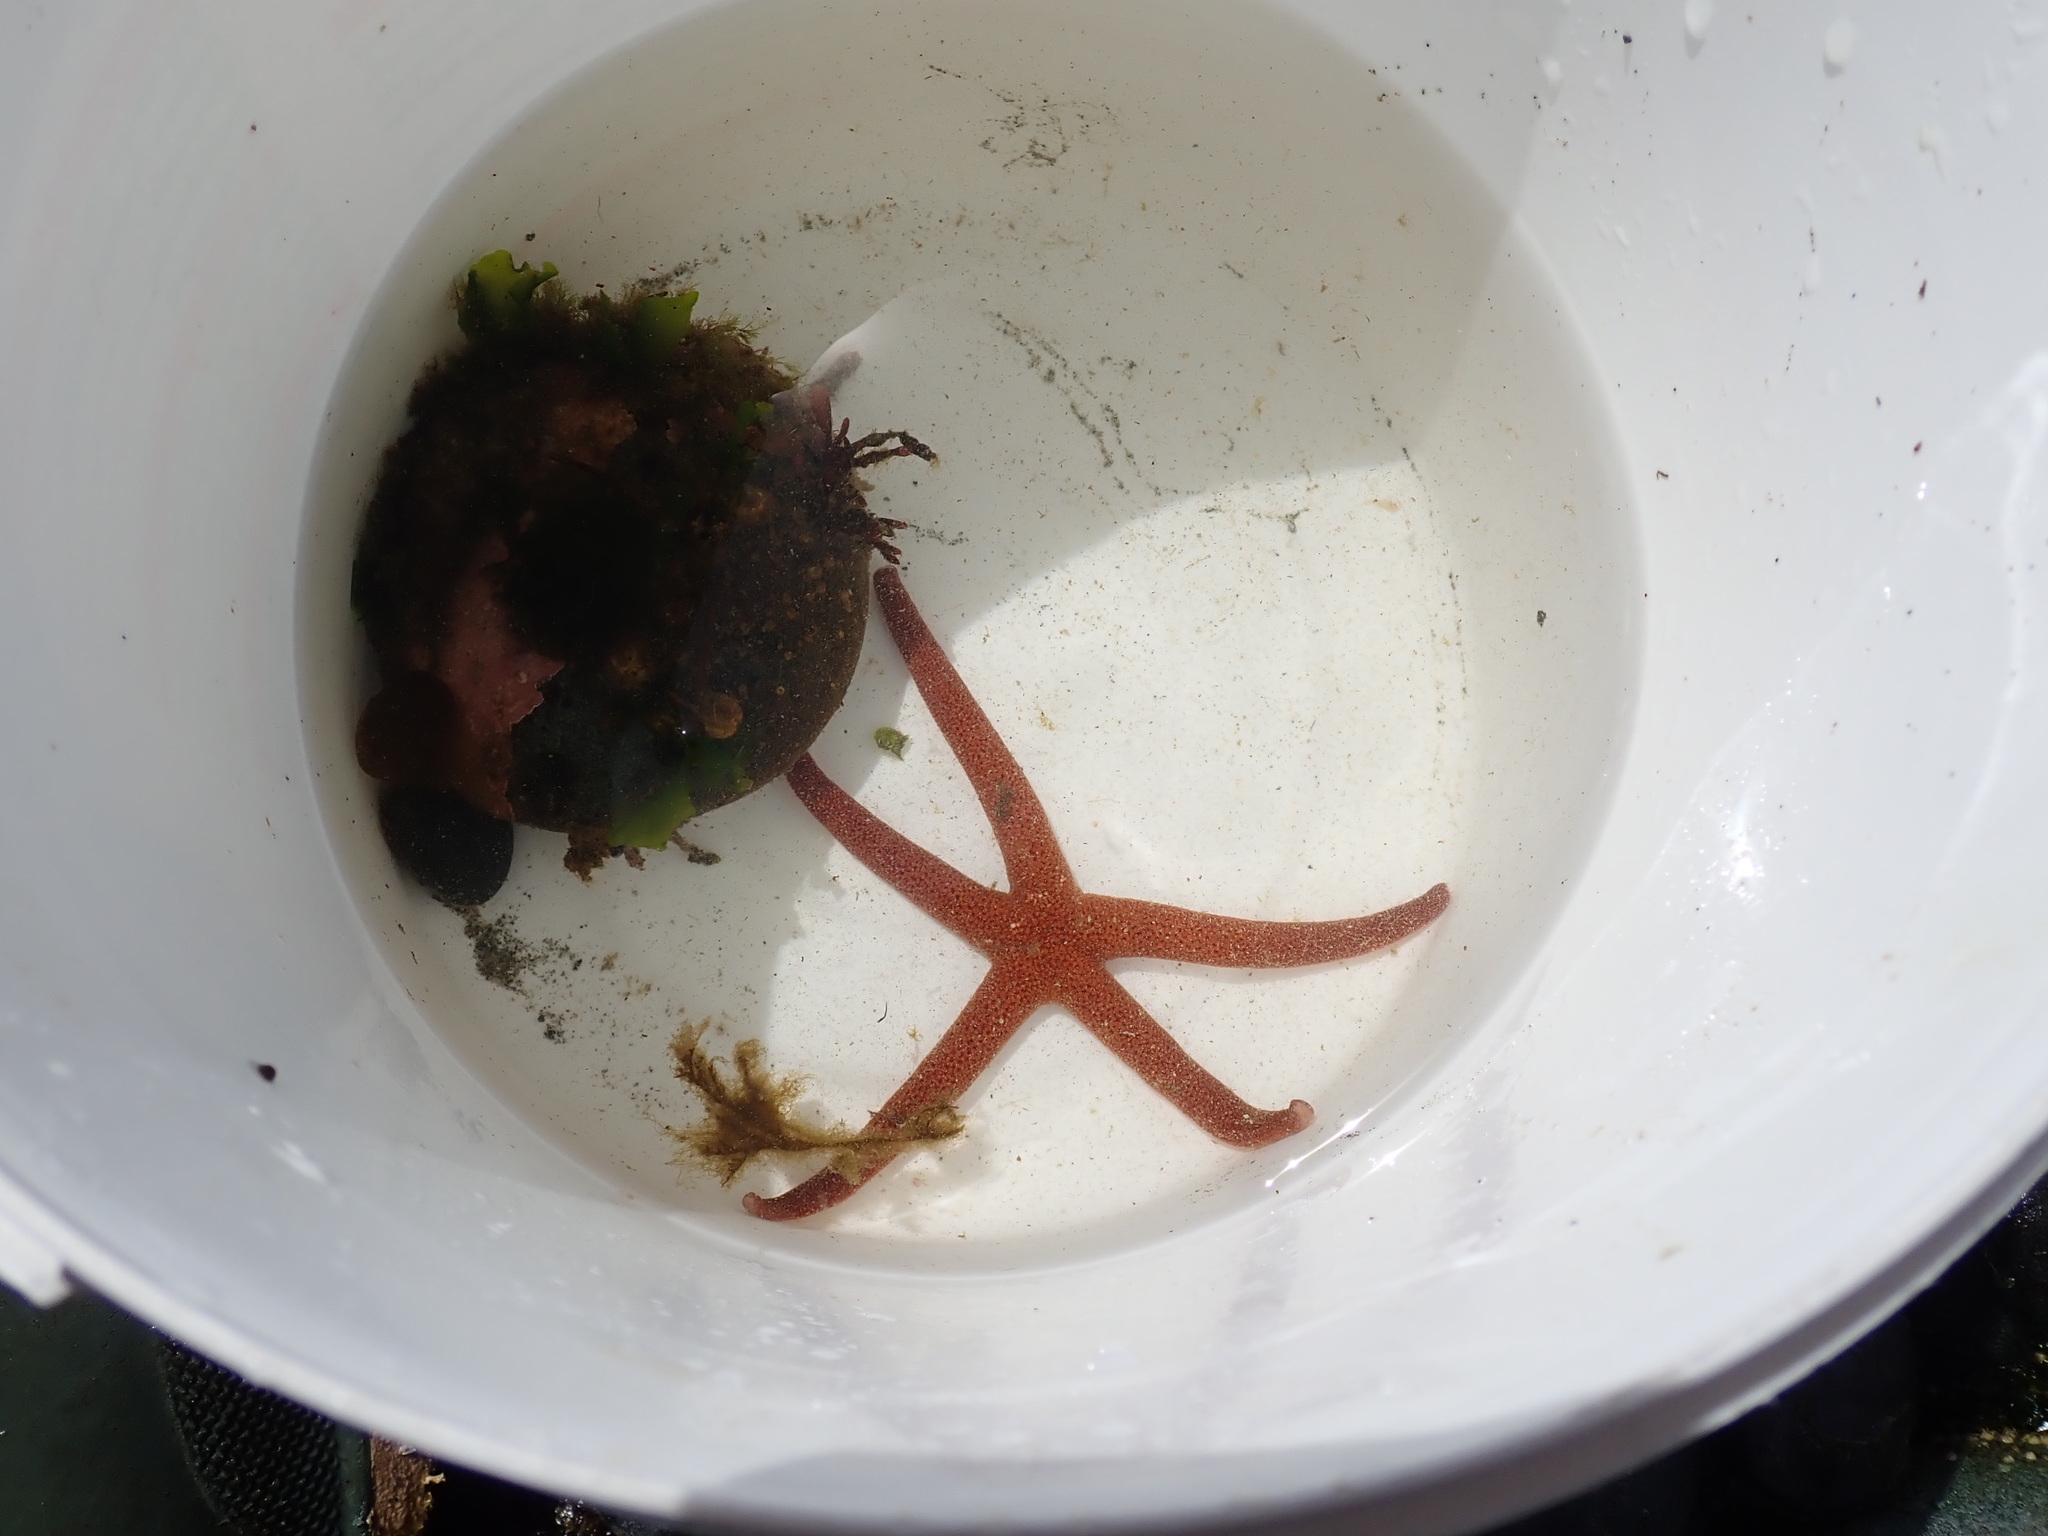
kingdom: Animalia
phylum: Echinodermata
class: Asteroidea
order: Spinulosida
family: Echinasteridae
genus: Henricia
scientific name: Henricia
